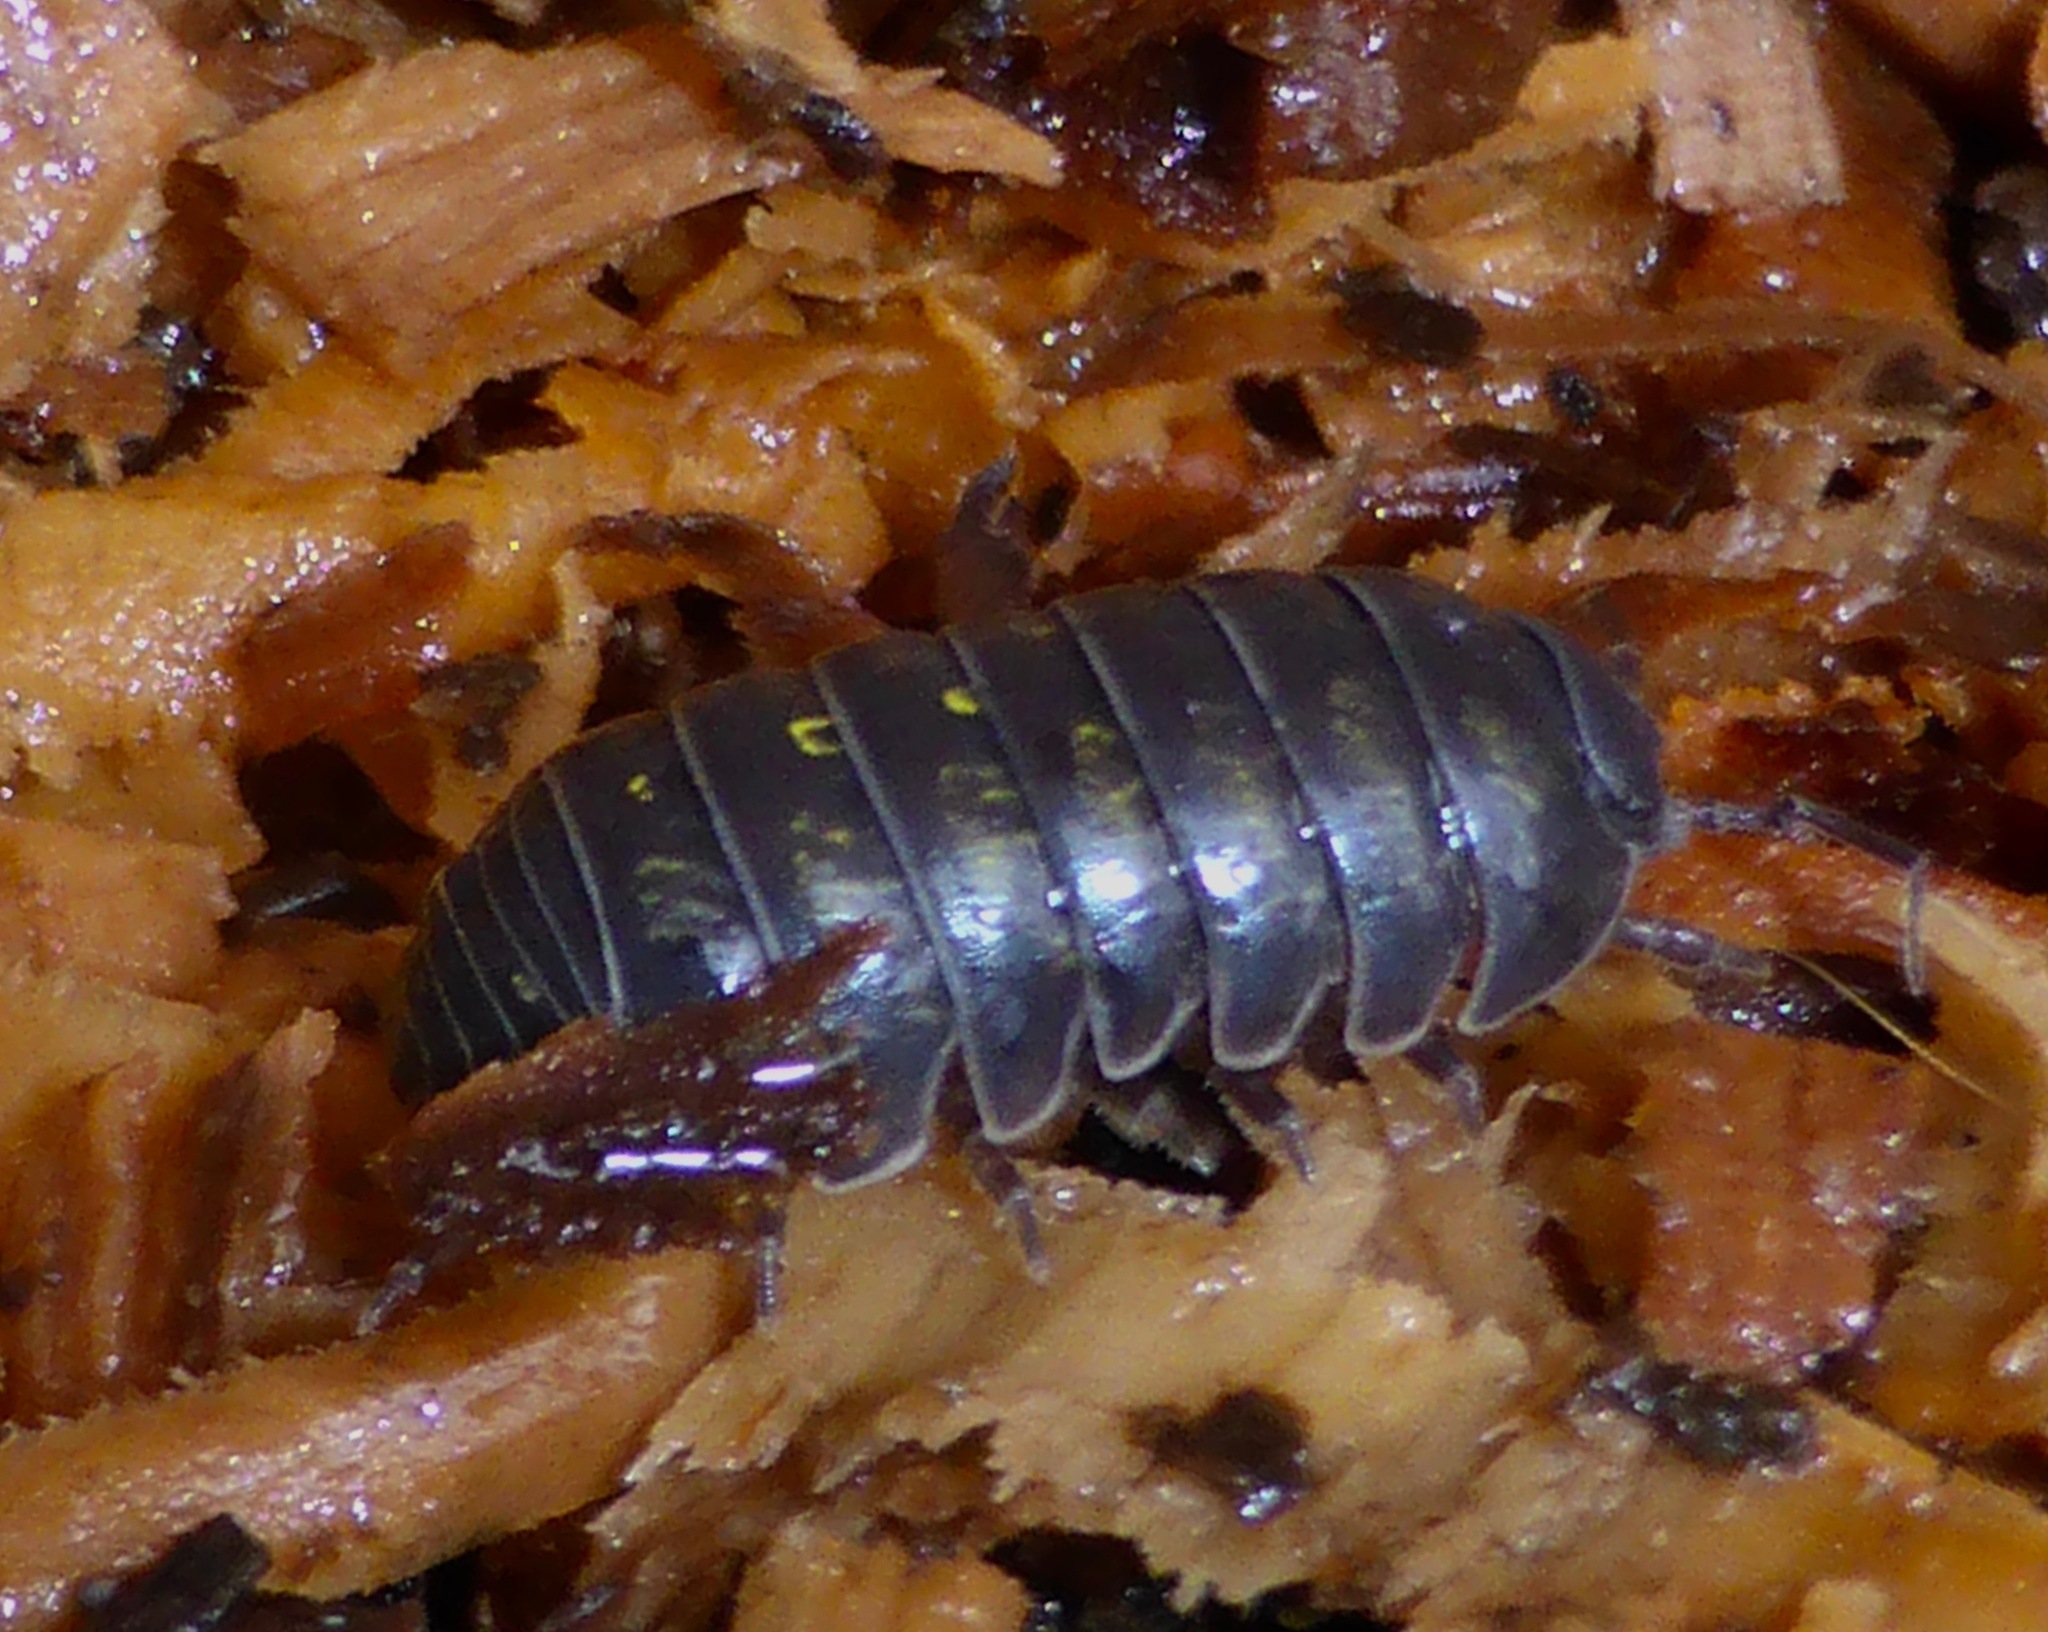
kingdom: Animalia
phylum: Arthropoda
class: Malacostraca
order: Isopoda
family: Armadillidiidae
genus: Armadillidium
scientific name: Armadillidium vulgare
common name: Common pill woodlouse
